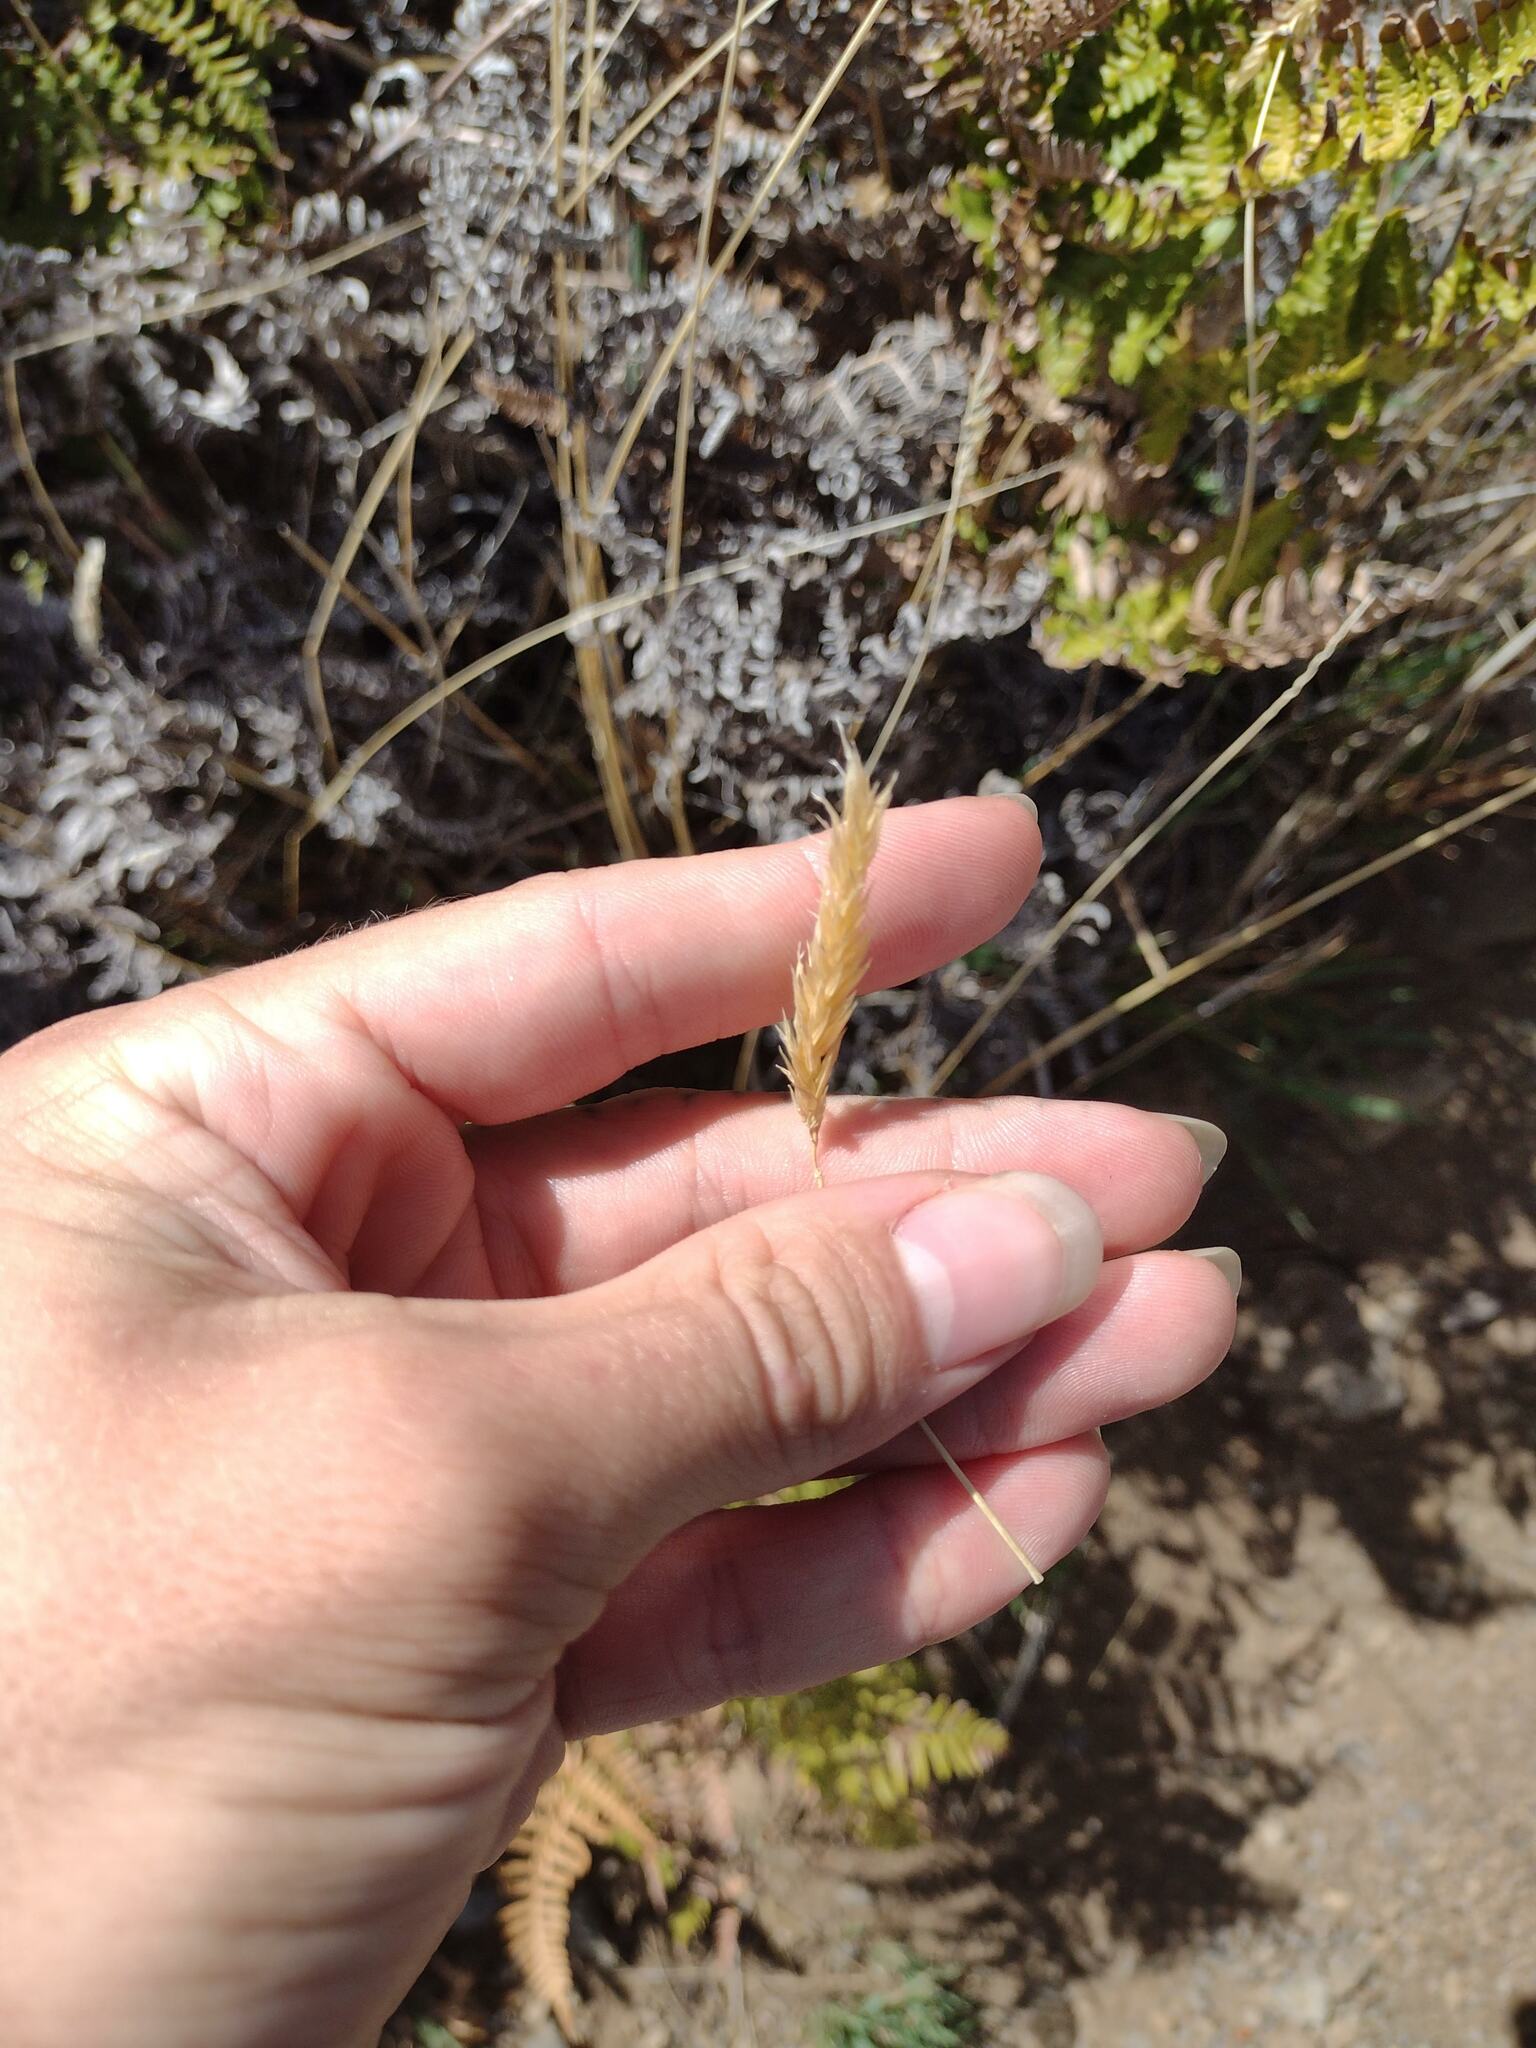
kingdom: Plantae
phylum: Tracheophyta
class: Liliopsida
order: Poales
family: Poaceae
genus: Anthoxanthum
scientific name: Anthoxanthum odoratum
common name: Sweet vernalgrass
